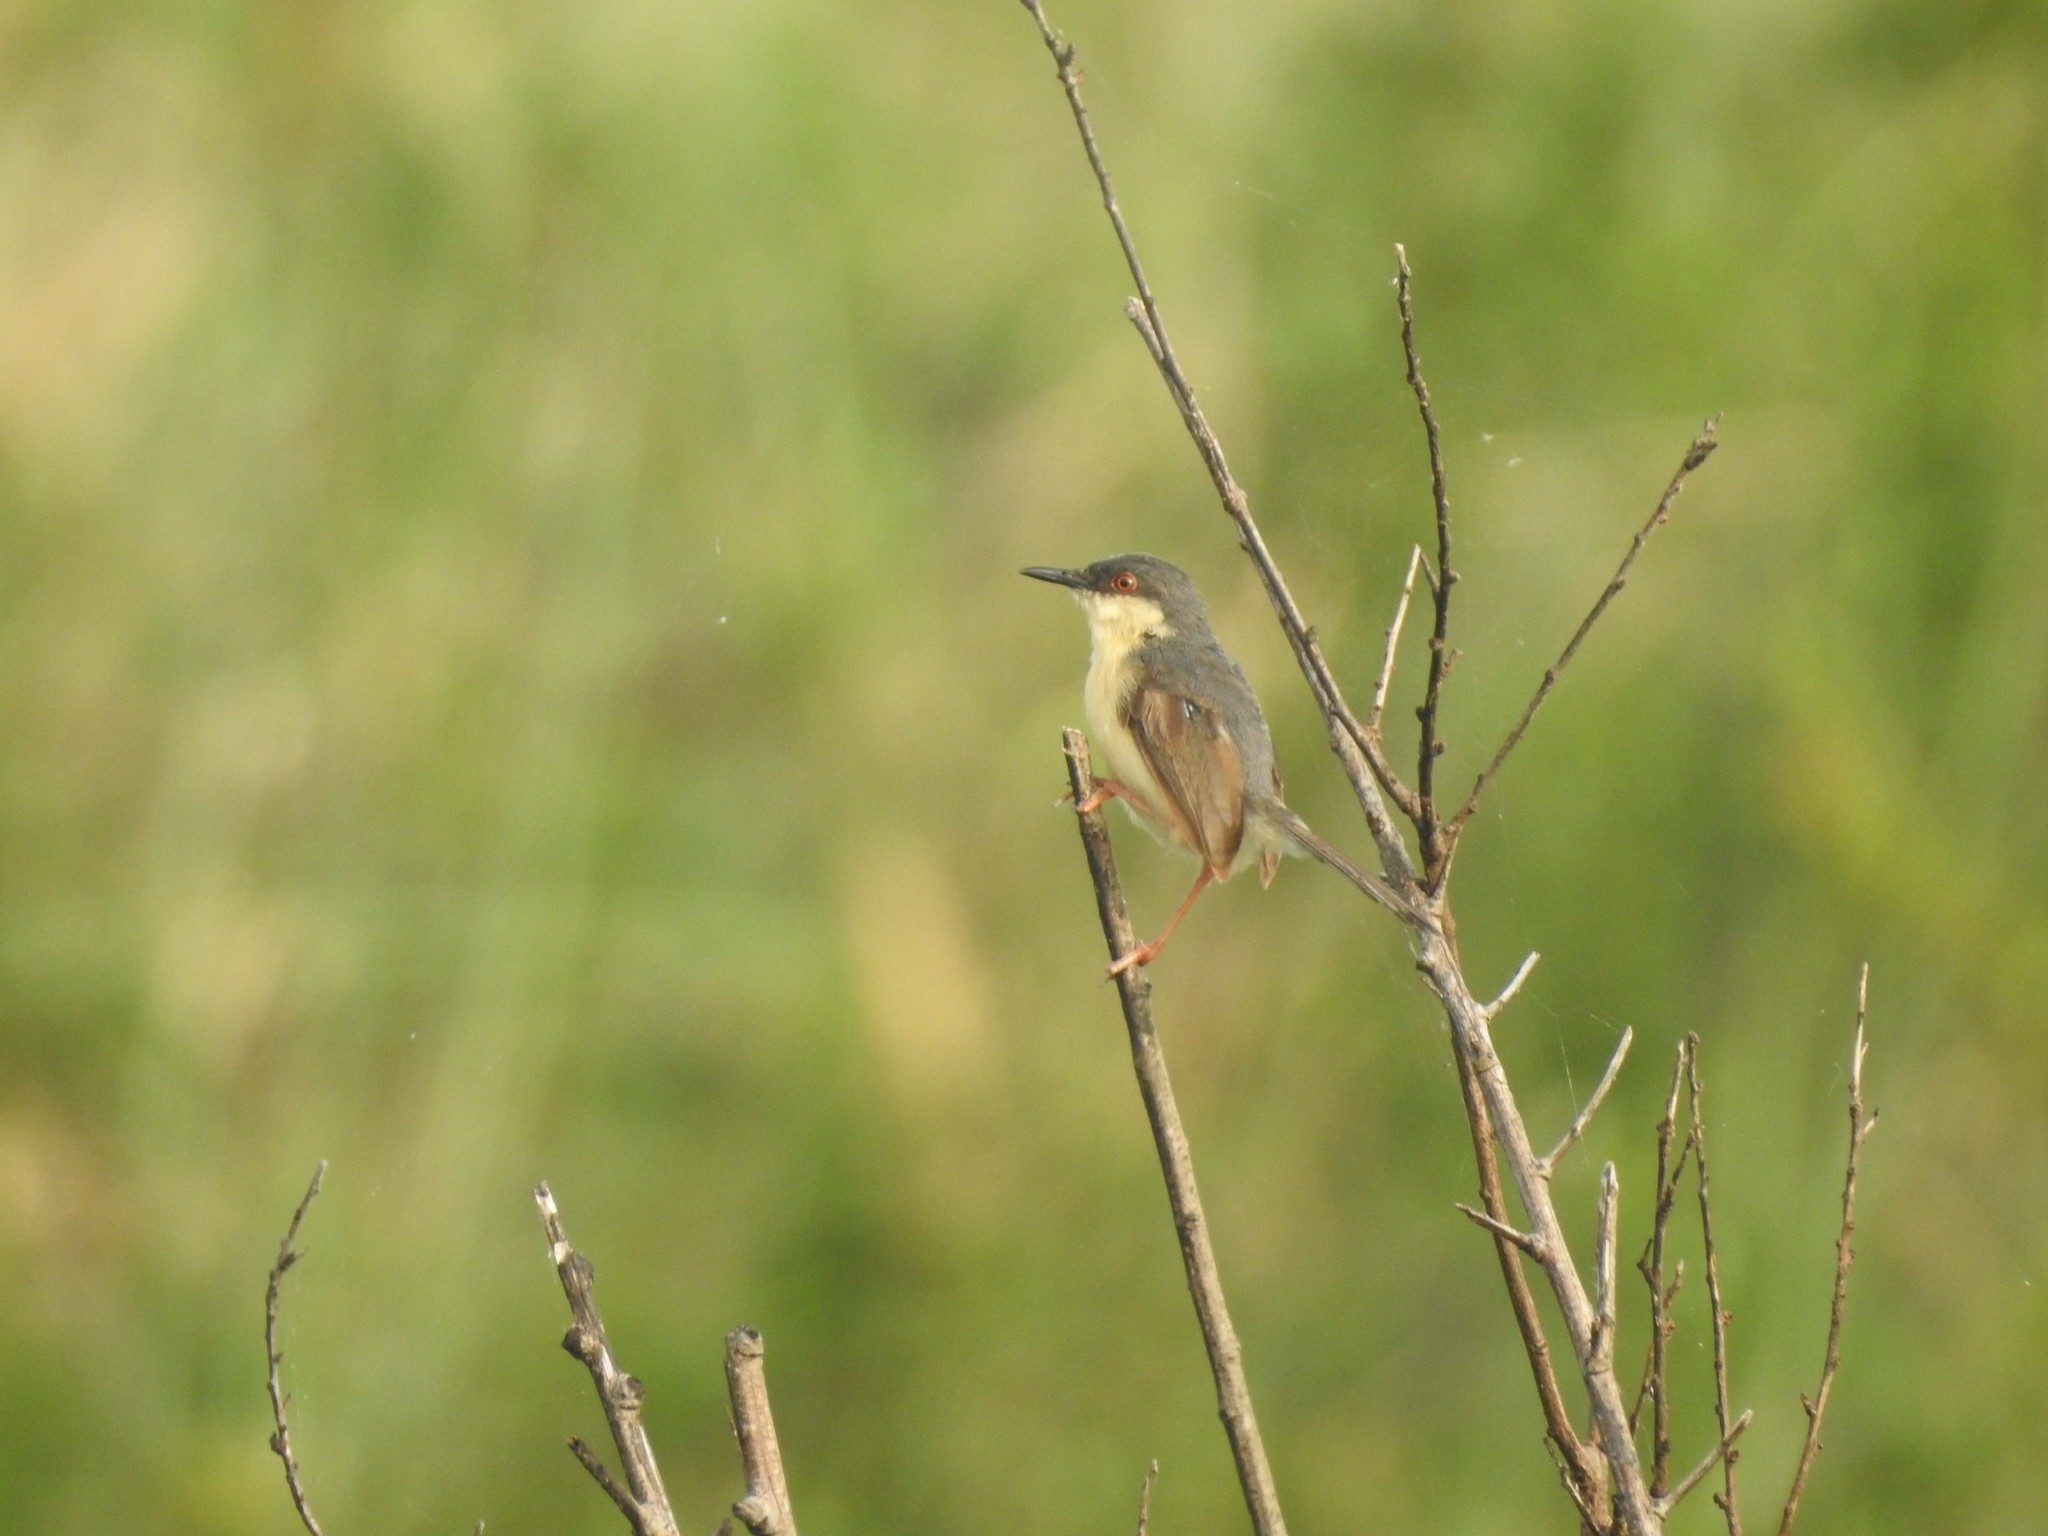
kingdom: Animalia
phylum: Chordata
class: Aves
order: Passeriformes
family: Cisticolidae
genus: Prinia
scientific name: Prinia socialis
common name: Ashy prinia
